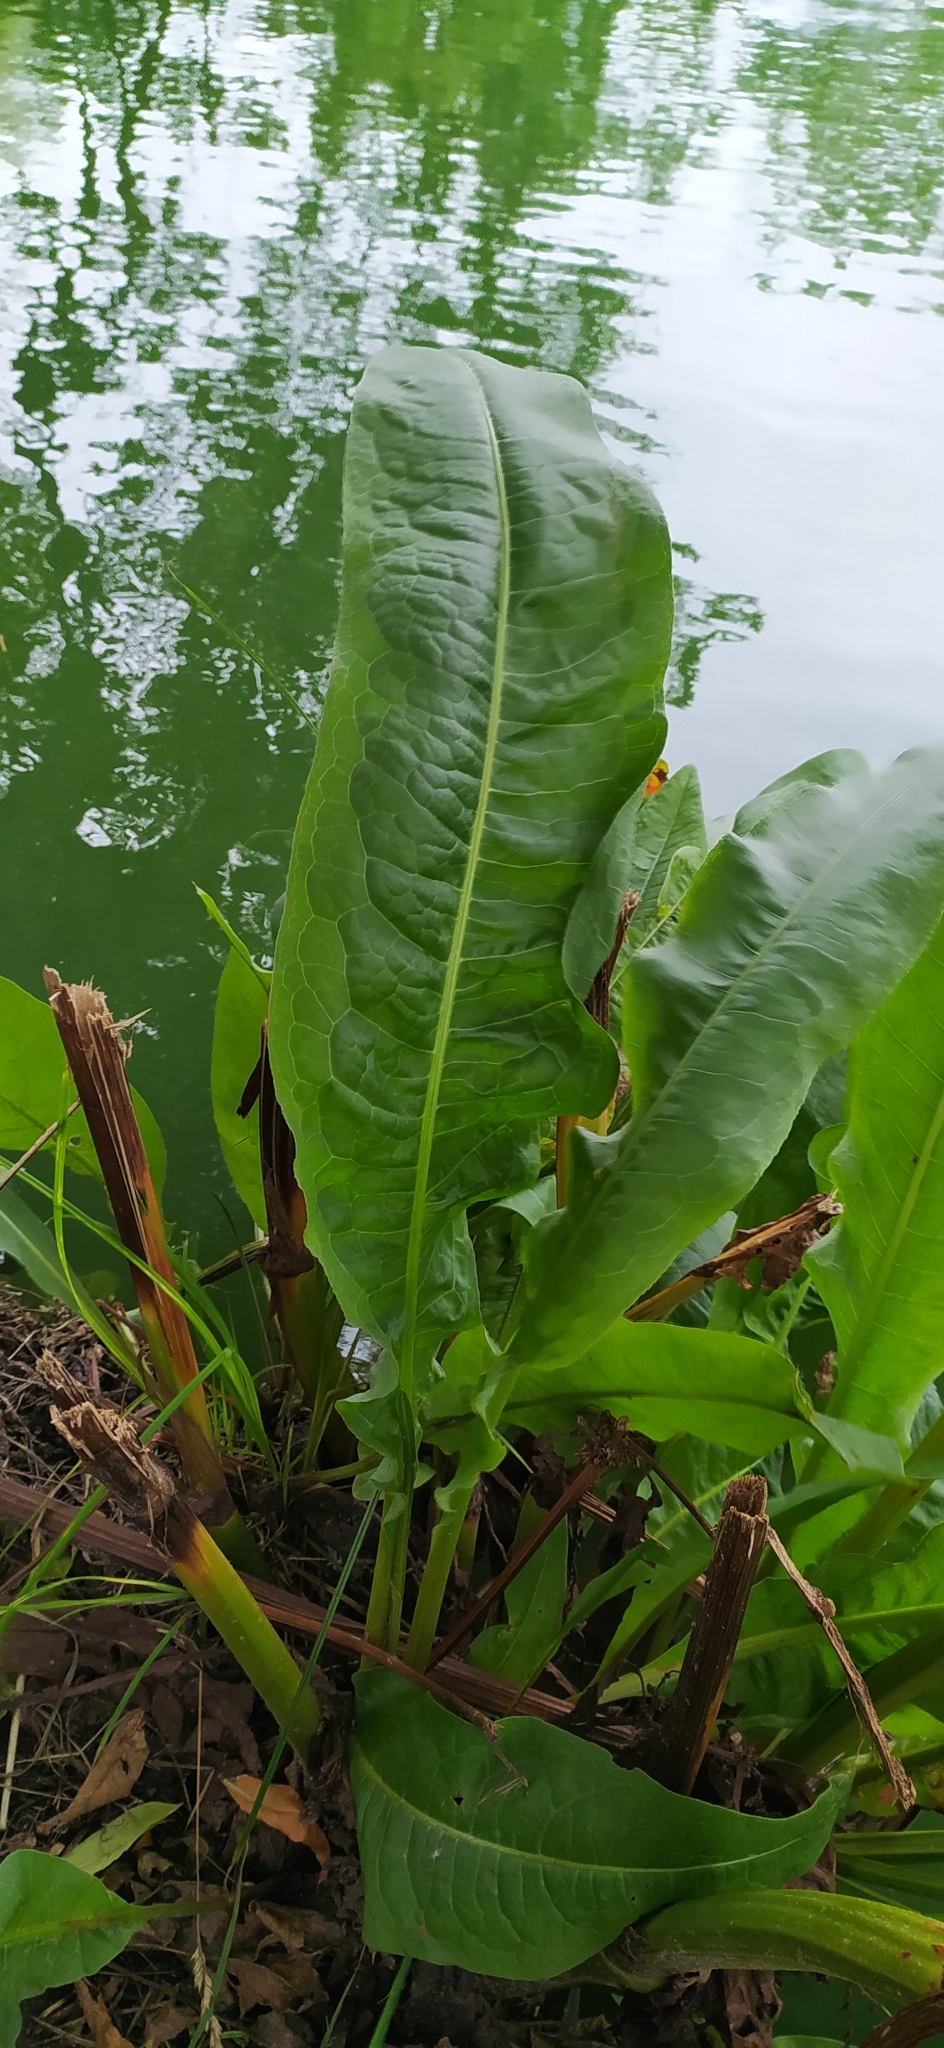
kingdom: Plantae
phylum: Tracheophyta
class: Magnoliopsida
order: Caryophyllales
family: Polygonaceae
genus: Rumex
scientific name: Rumex hydrolapathum
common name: Water dock
